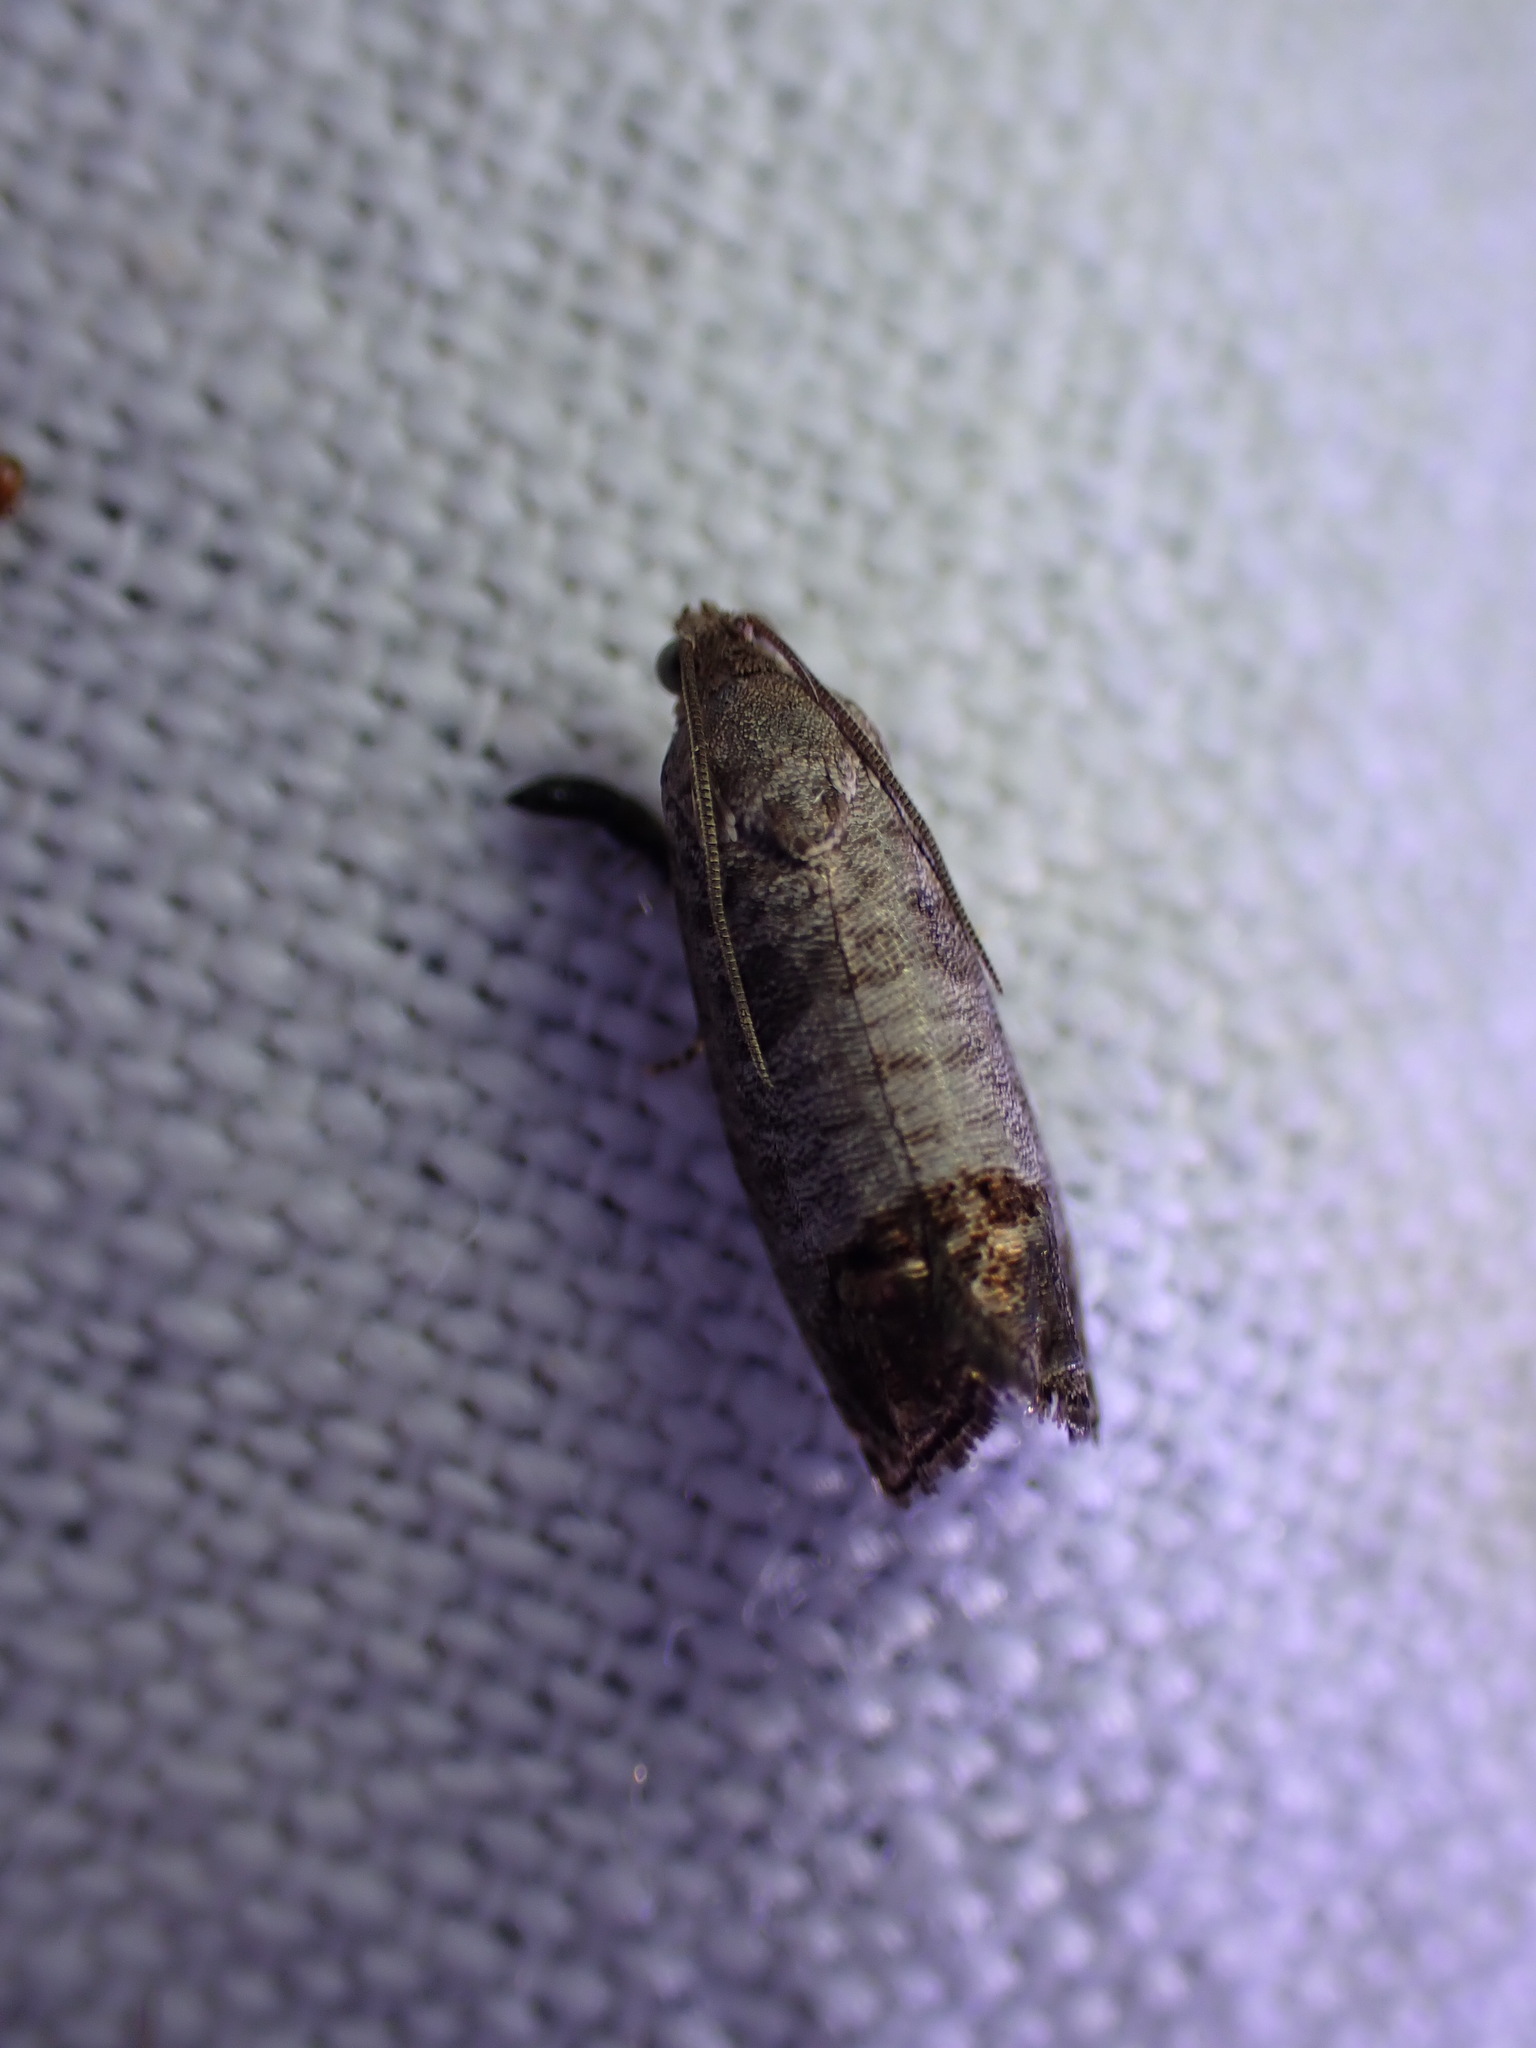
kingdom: Animalia
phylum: Arthropoda
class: Insecta
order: Lepidoptera
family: Tortricidae
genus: Cydia
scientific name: Cydia pomonella
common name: Codling moth
